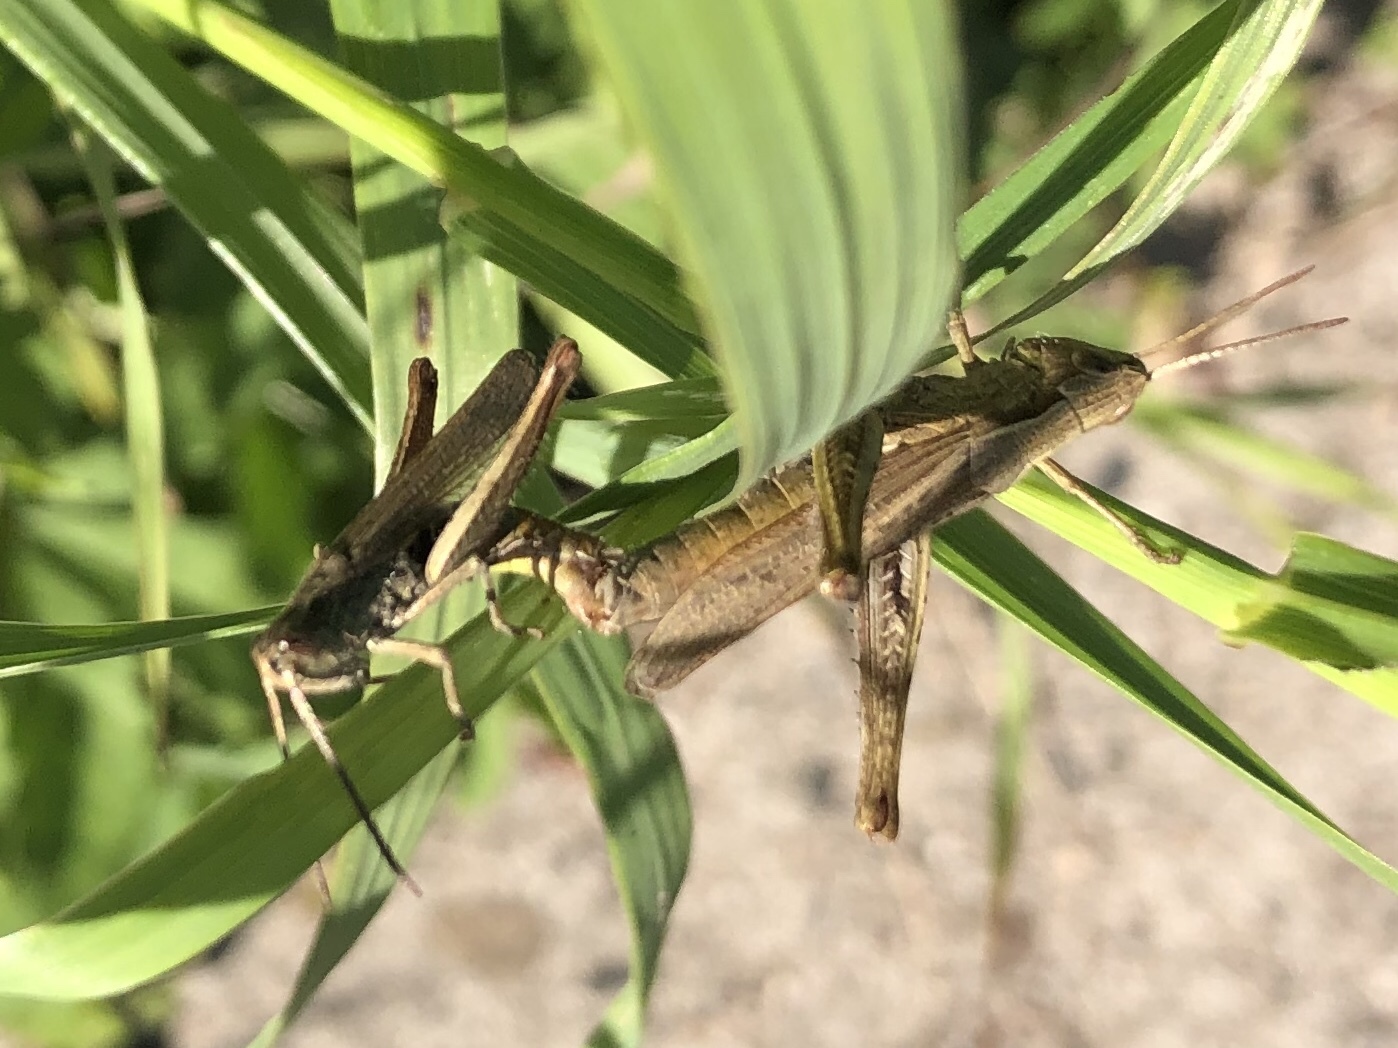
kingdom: Animalia
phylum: Arthropoda
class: Insecta
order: Orthoptera
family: Acrididae
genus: Chorthippus
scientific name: Chorthippus dorsatus
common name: Steppe grasshopper
